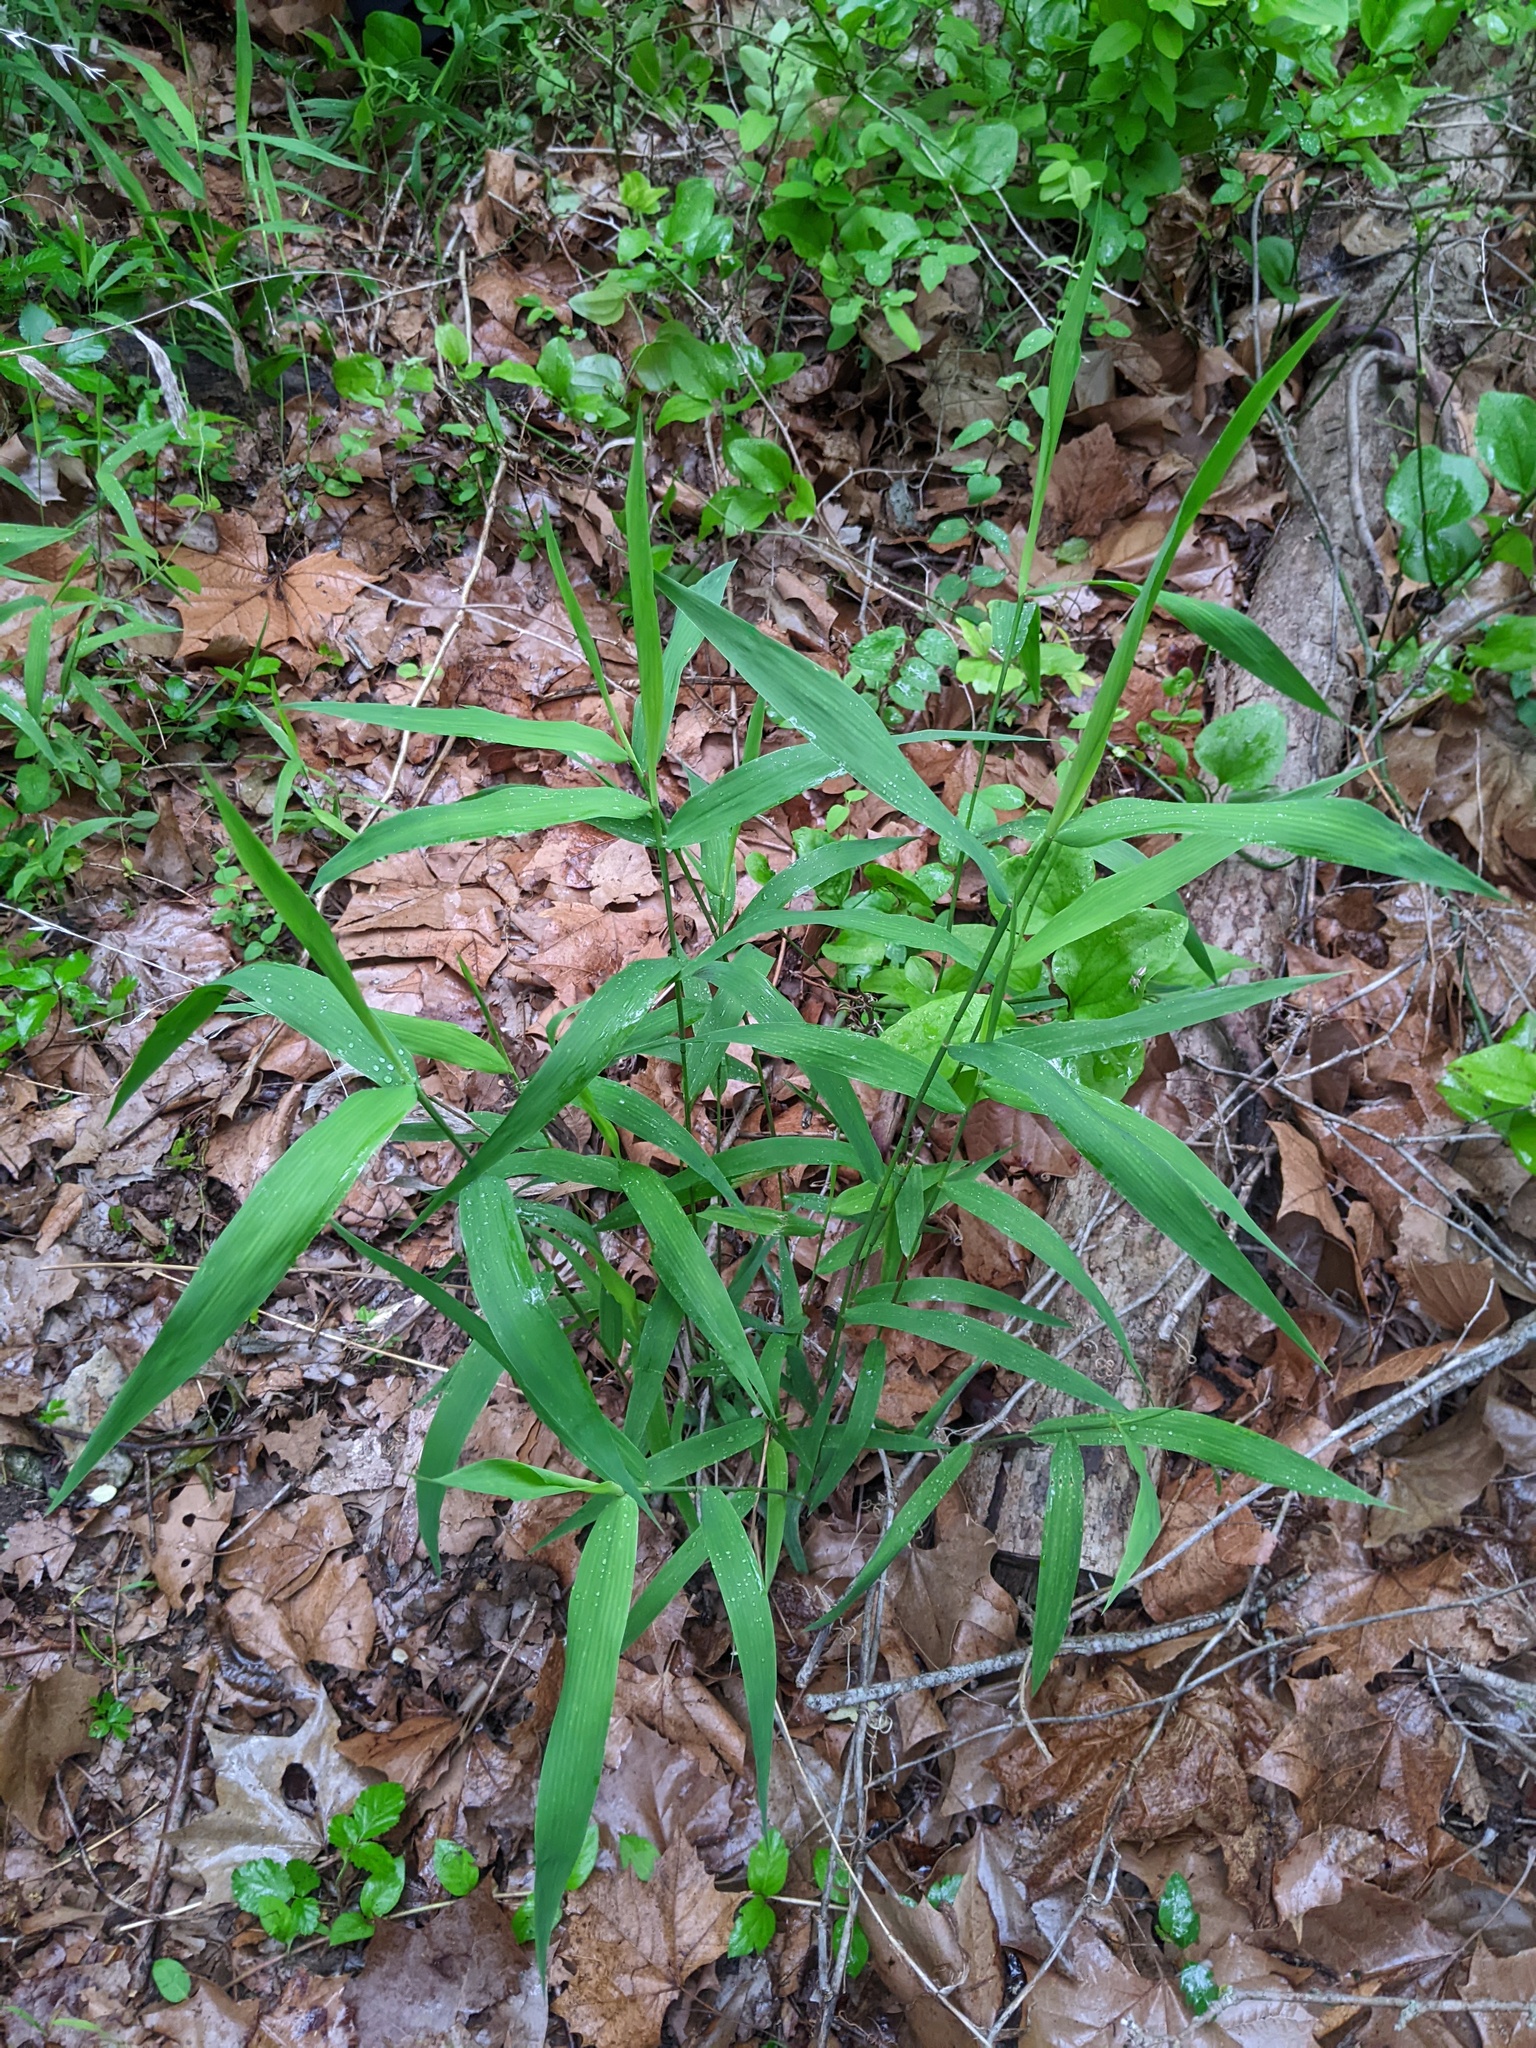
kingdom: Plantae
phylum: Tracheophyta
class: Liliopsida
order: Poales
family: Poaceae
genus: Chasmanthium
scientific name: Chasmanthium latifolium
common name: Broad-leaved chasmanthium
